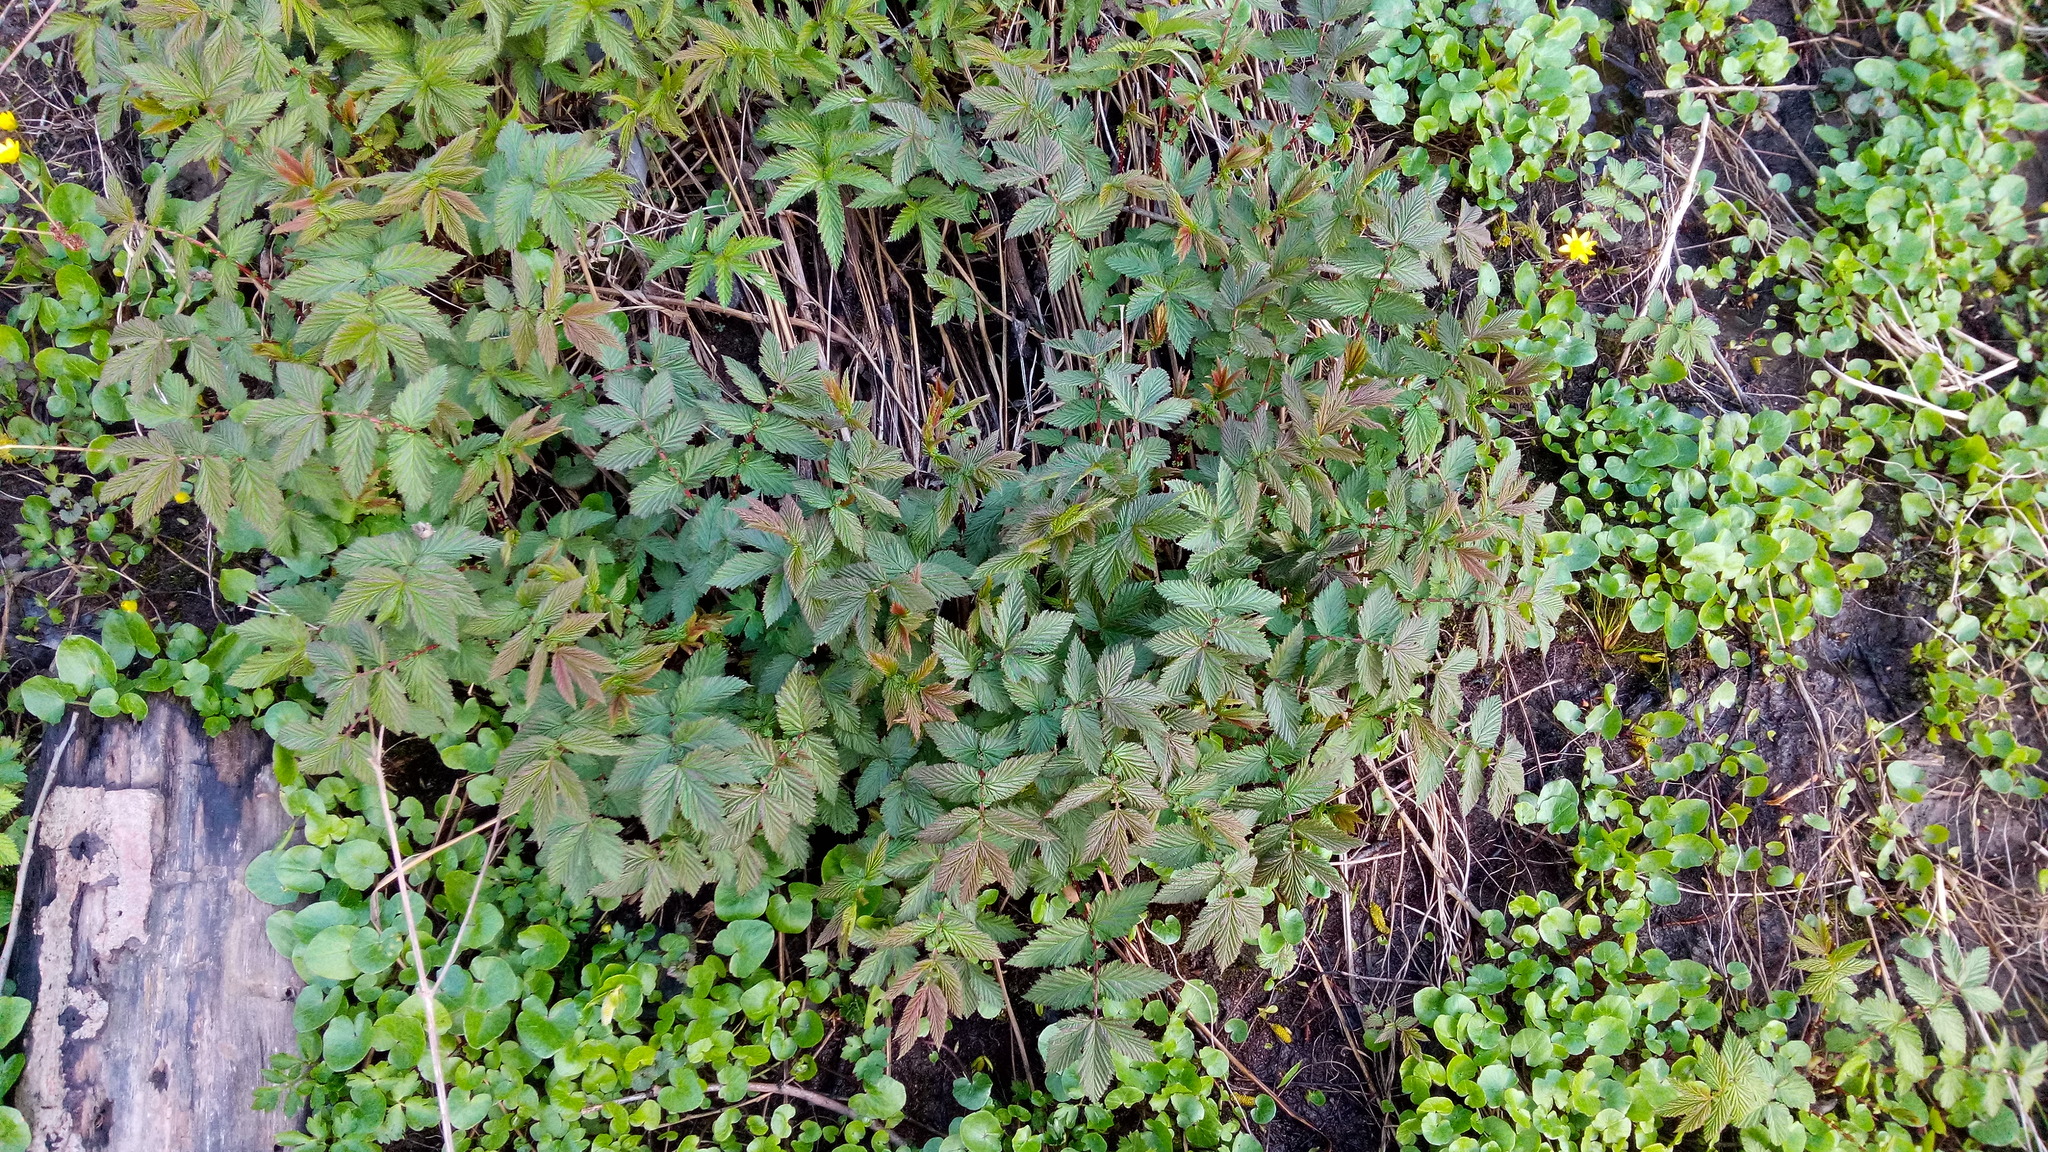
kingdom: Plantae
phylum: Tracheophyta
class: Magnoliopsida
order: Rosales
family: Rosaceae
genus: Filipendula
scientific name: Filipendula ulmaria
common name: Meadowsweet
